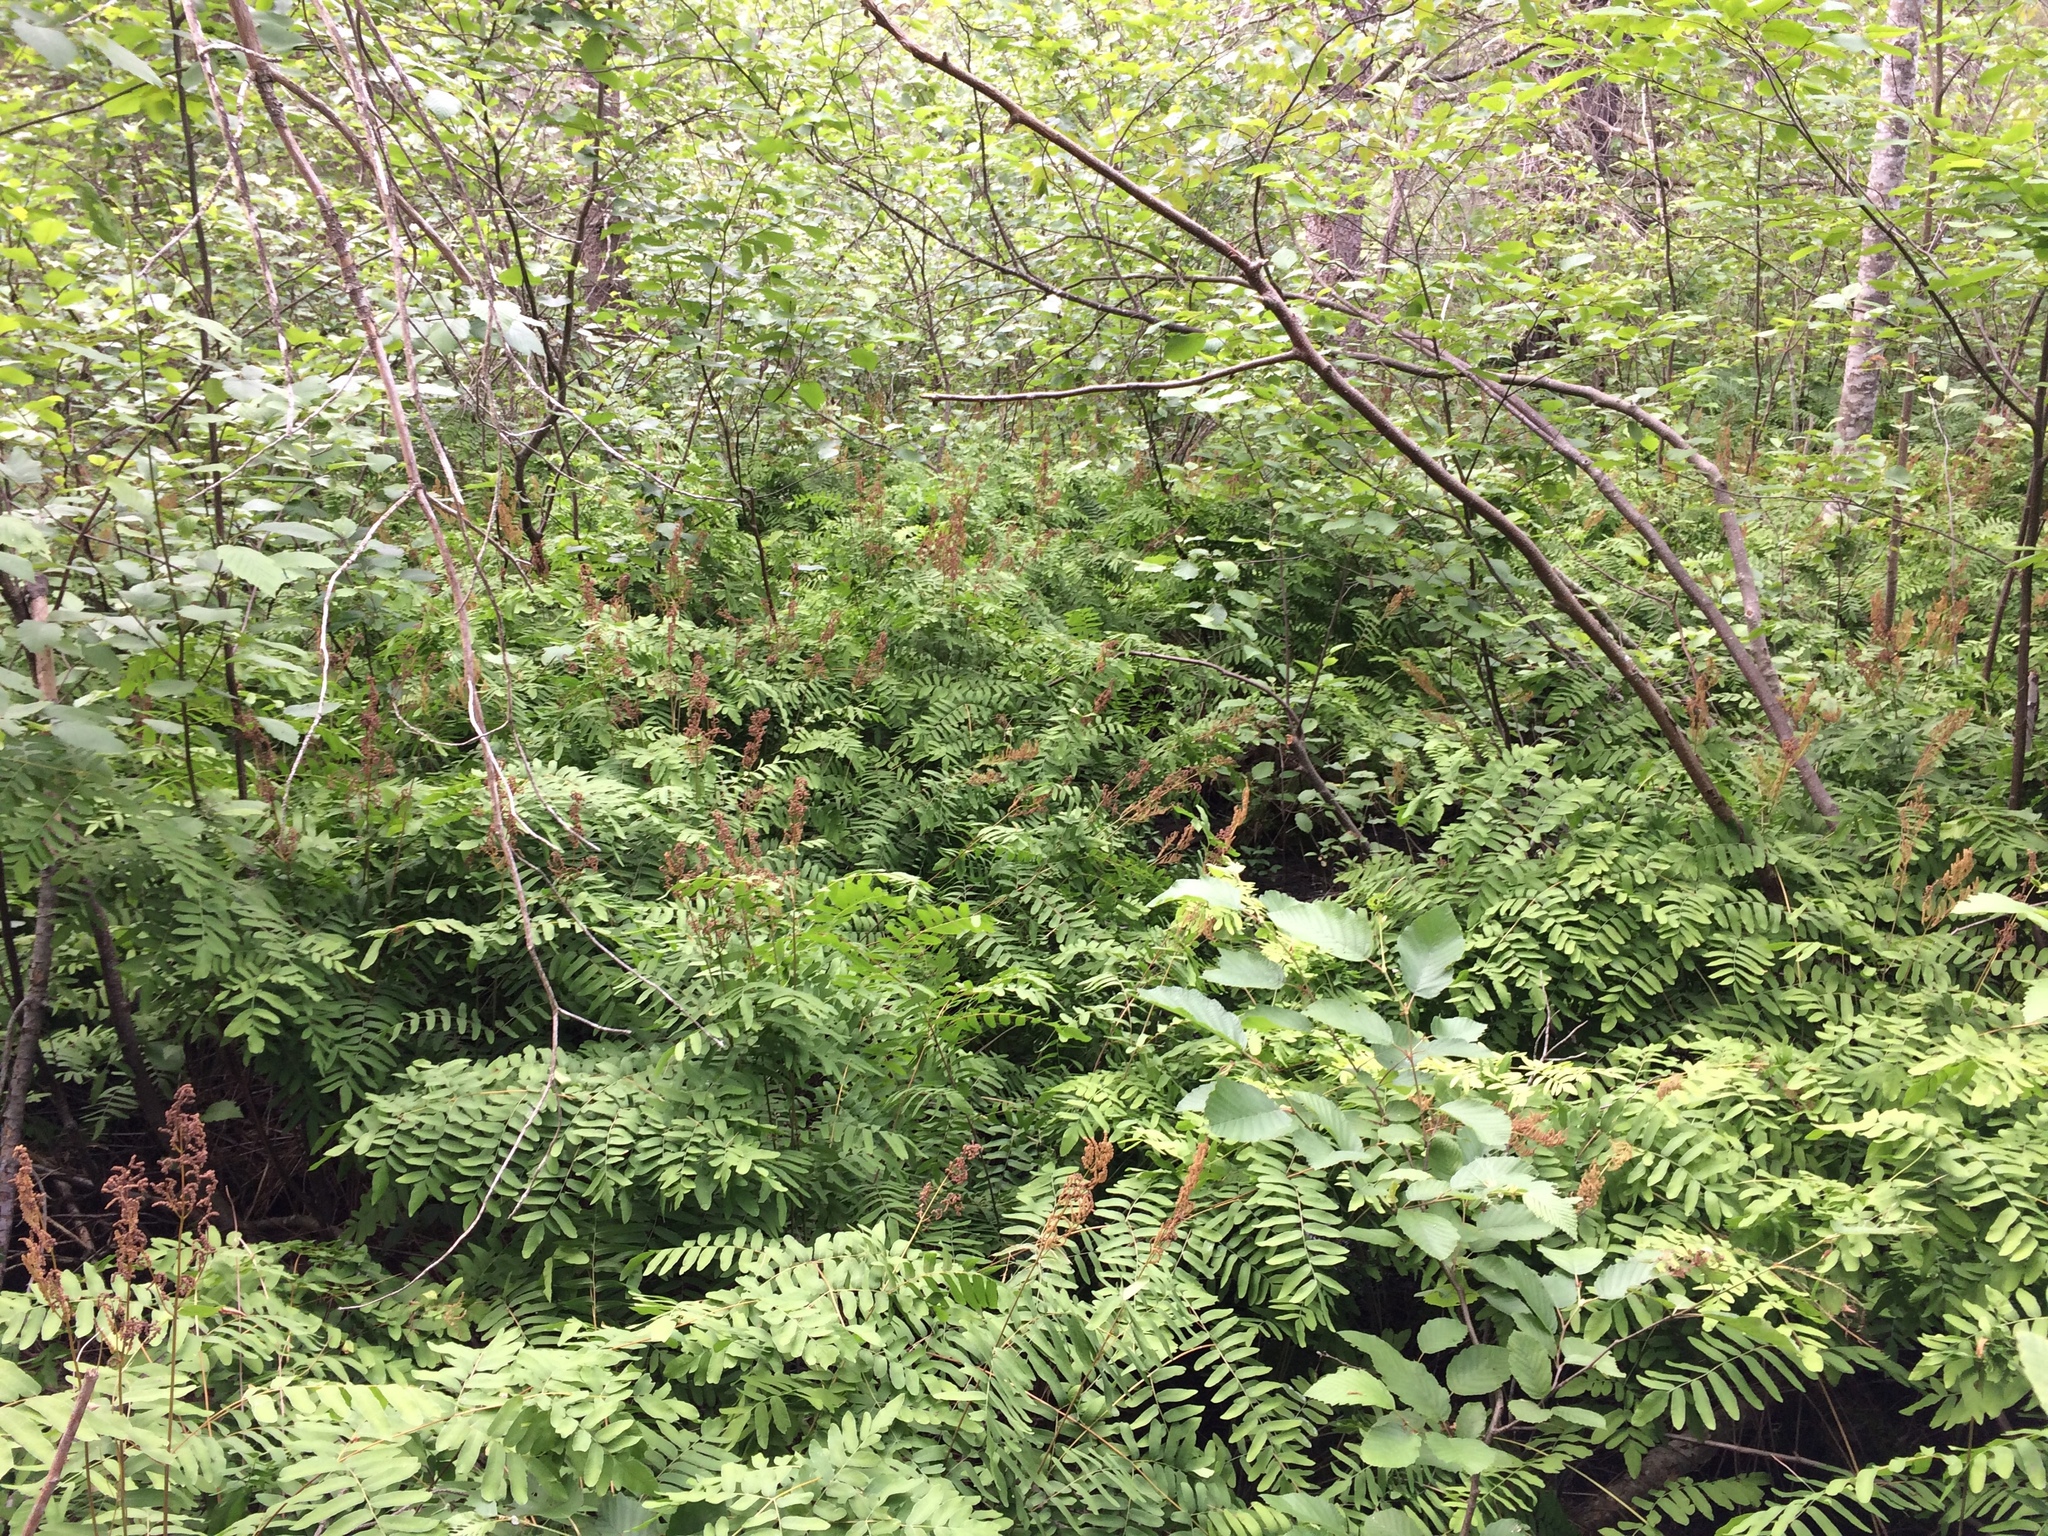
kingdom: Plantae
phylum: Tracheophyta
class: Polypodiopsida
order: Osmundales
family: Osmundaceae
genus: Osmunda
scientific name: Osmunda spectabilis
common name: American royal fern
